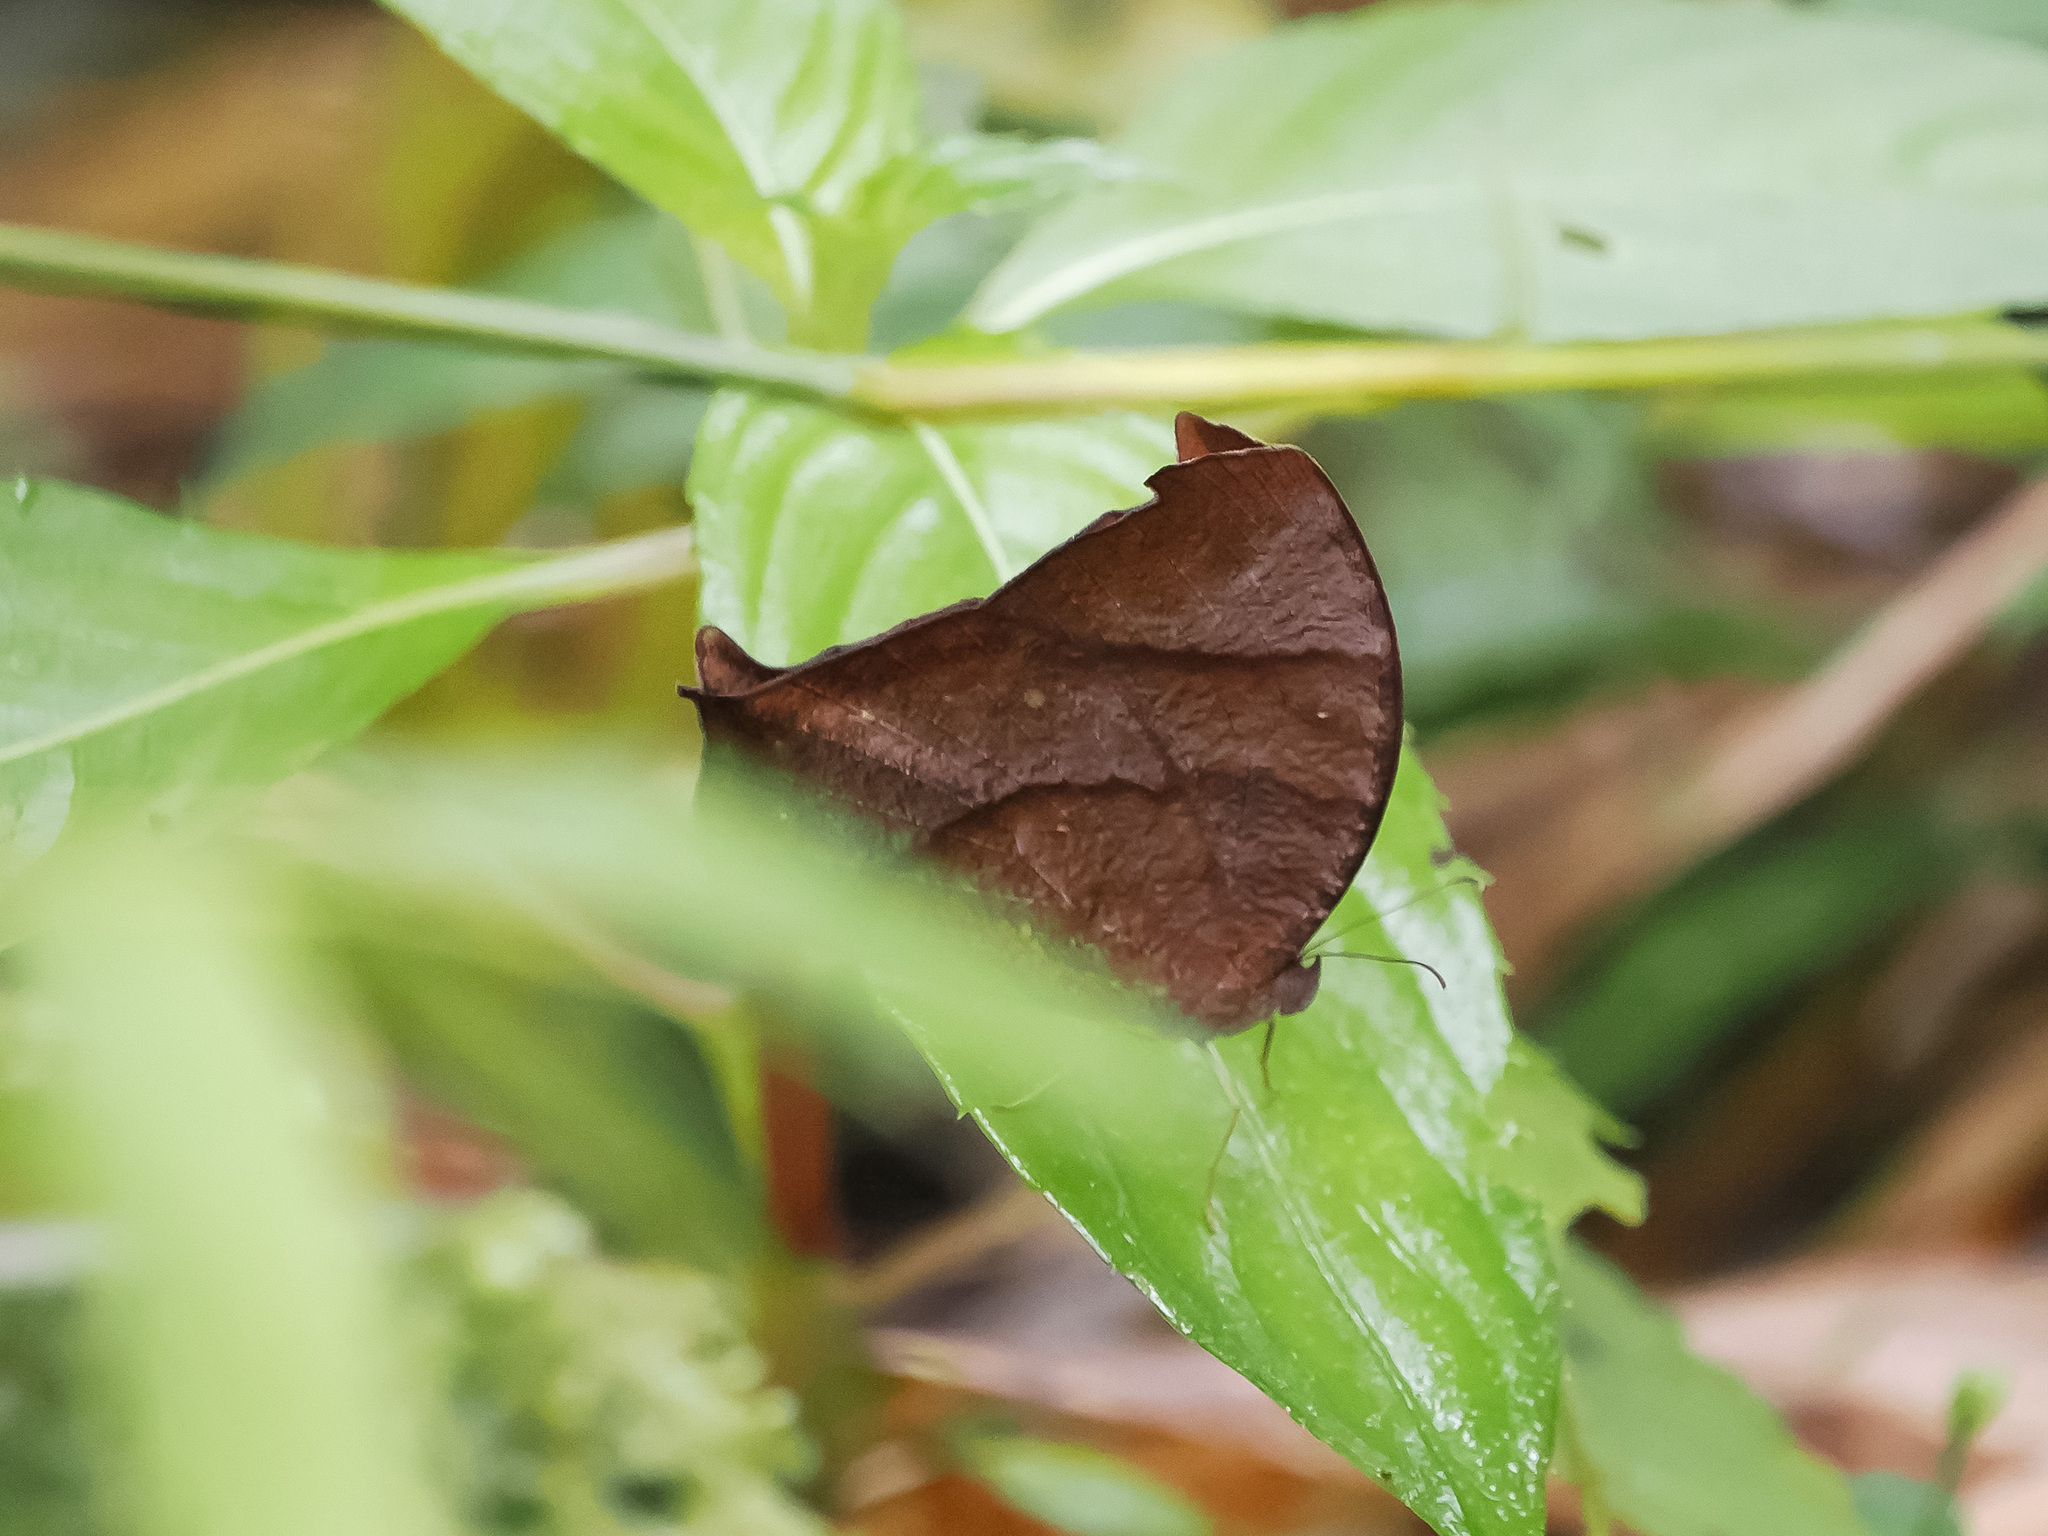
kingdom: Animalia
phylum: Arthropoda
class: Insecta
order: Lepidoptera
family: Nymphalidae
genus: Melanitis
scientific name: Melanitis leda
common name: Twilight brown
